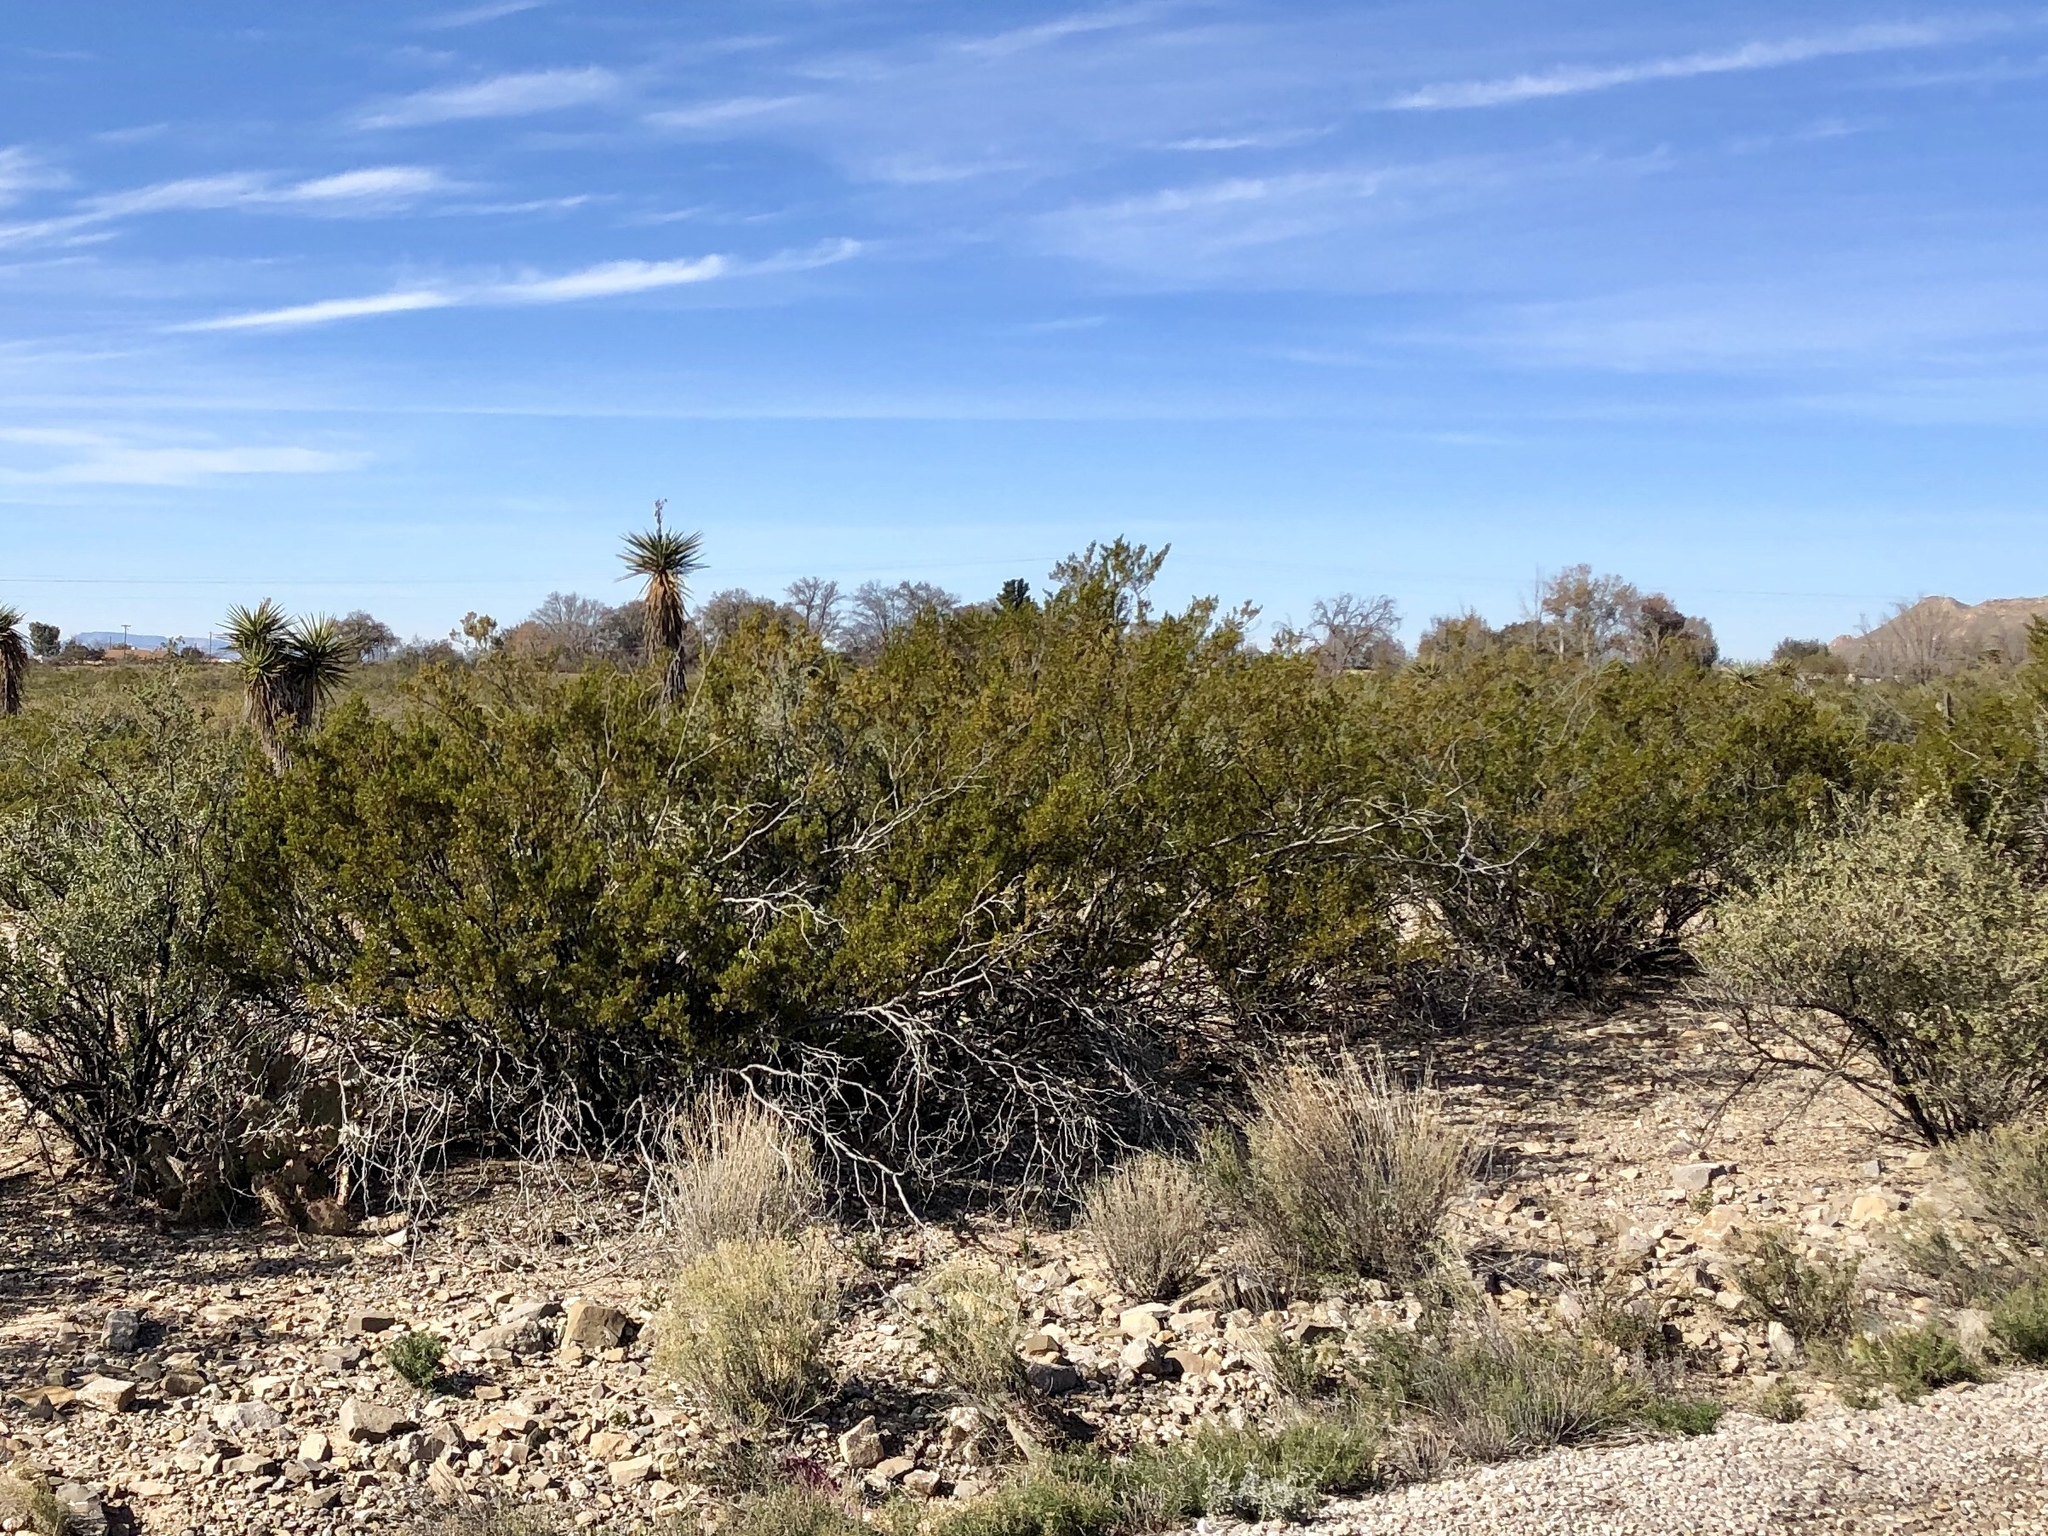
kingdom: Plantae
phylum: Tracheophyta
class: Magnoliopsida
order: Zygophyllales
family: Zygophyllaceae
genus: Larrea
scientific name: Larrea tridentata
